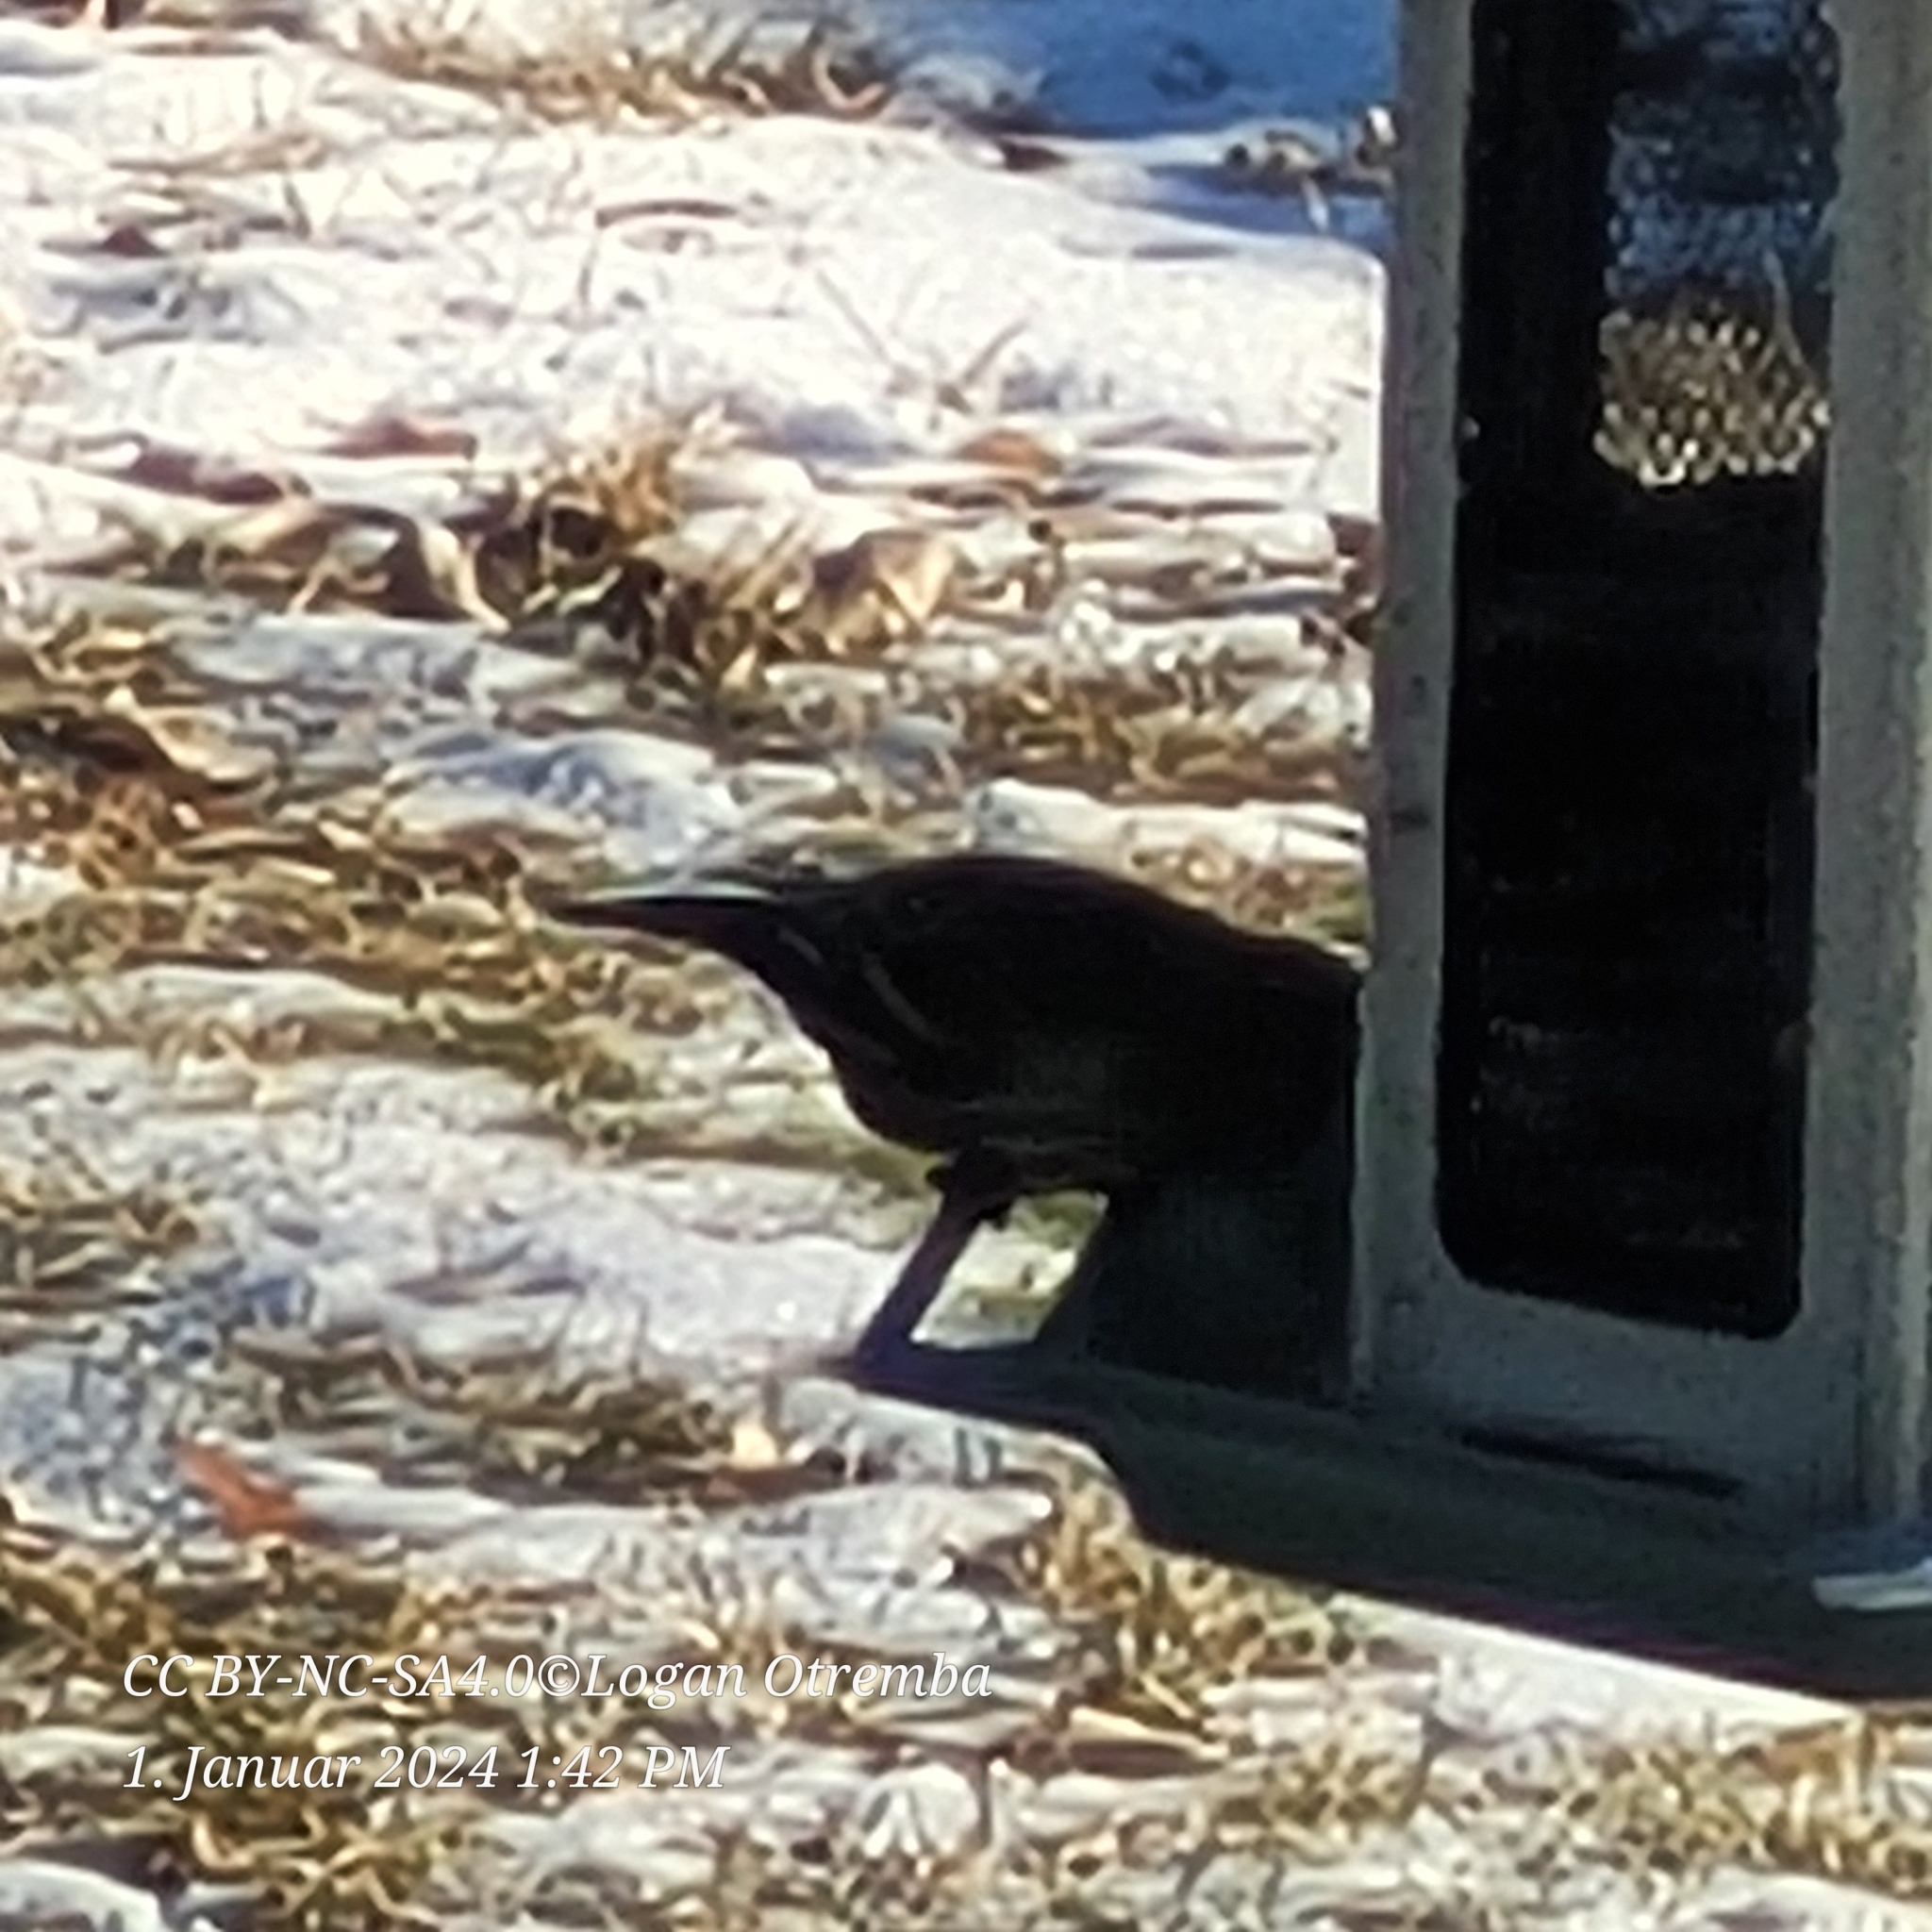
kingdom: Animalia
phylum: Chordata
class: Aves
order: Passeriformes
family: Fringillidae
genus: Spinus
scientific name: Spinus pinus
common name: Pine siskin
